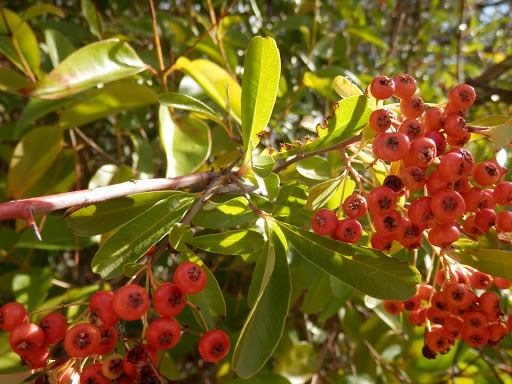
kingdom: Plantae
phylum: Tracheophyta
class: Magnoliopsida
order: Rosales
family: Rosaceae
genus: Pyracantha
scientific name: Pyracantha coccinea
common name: Firethorn
